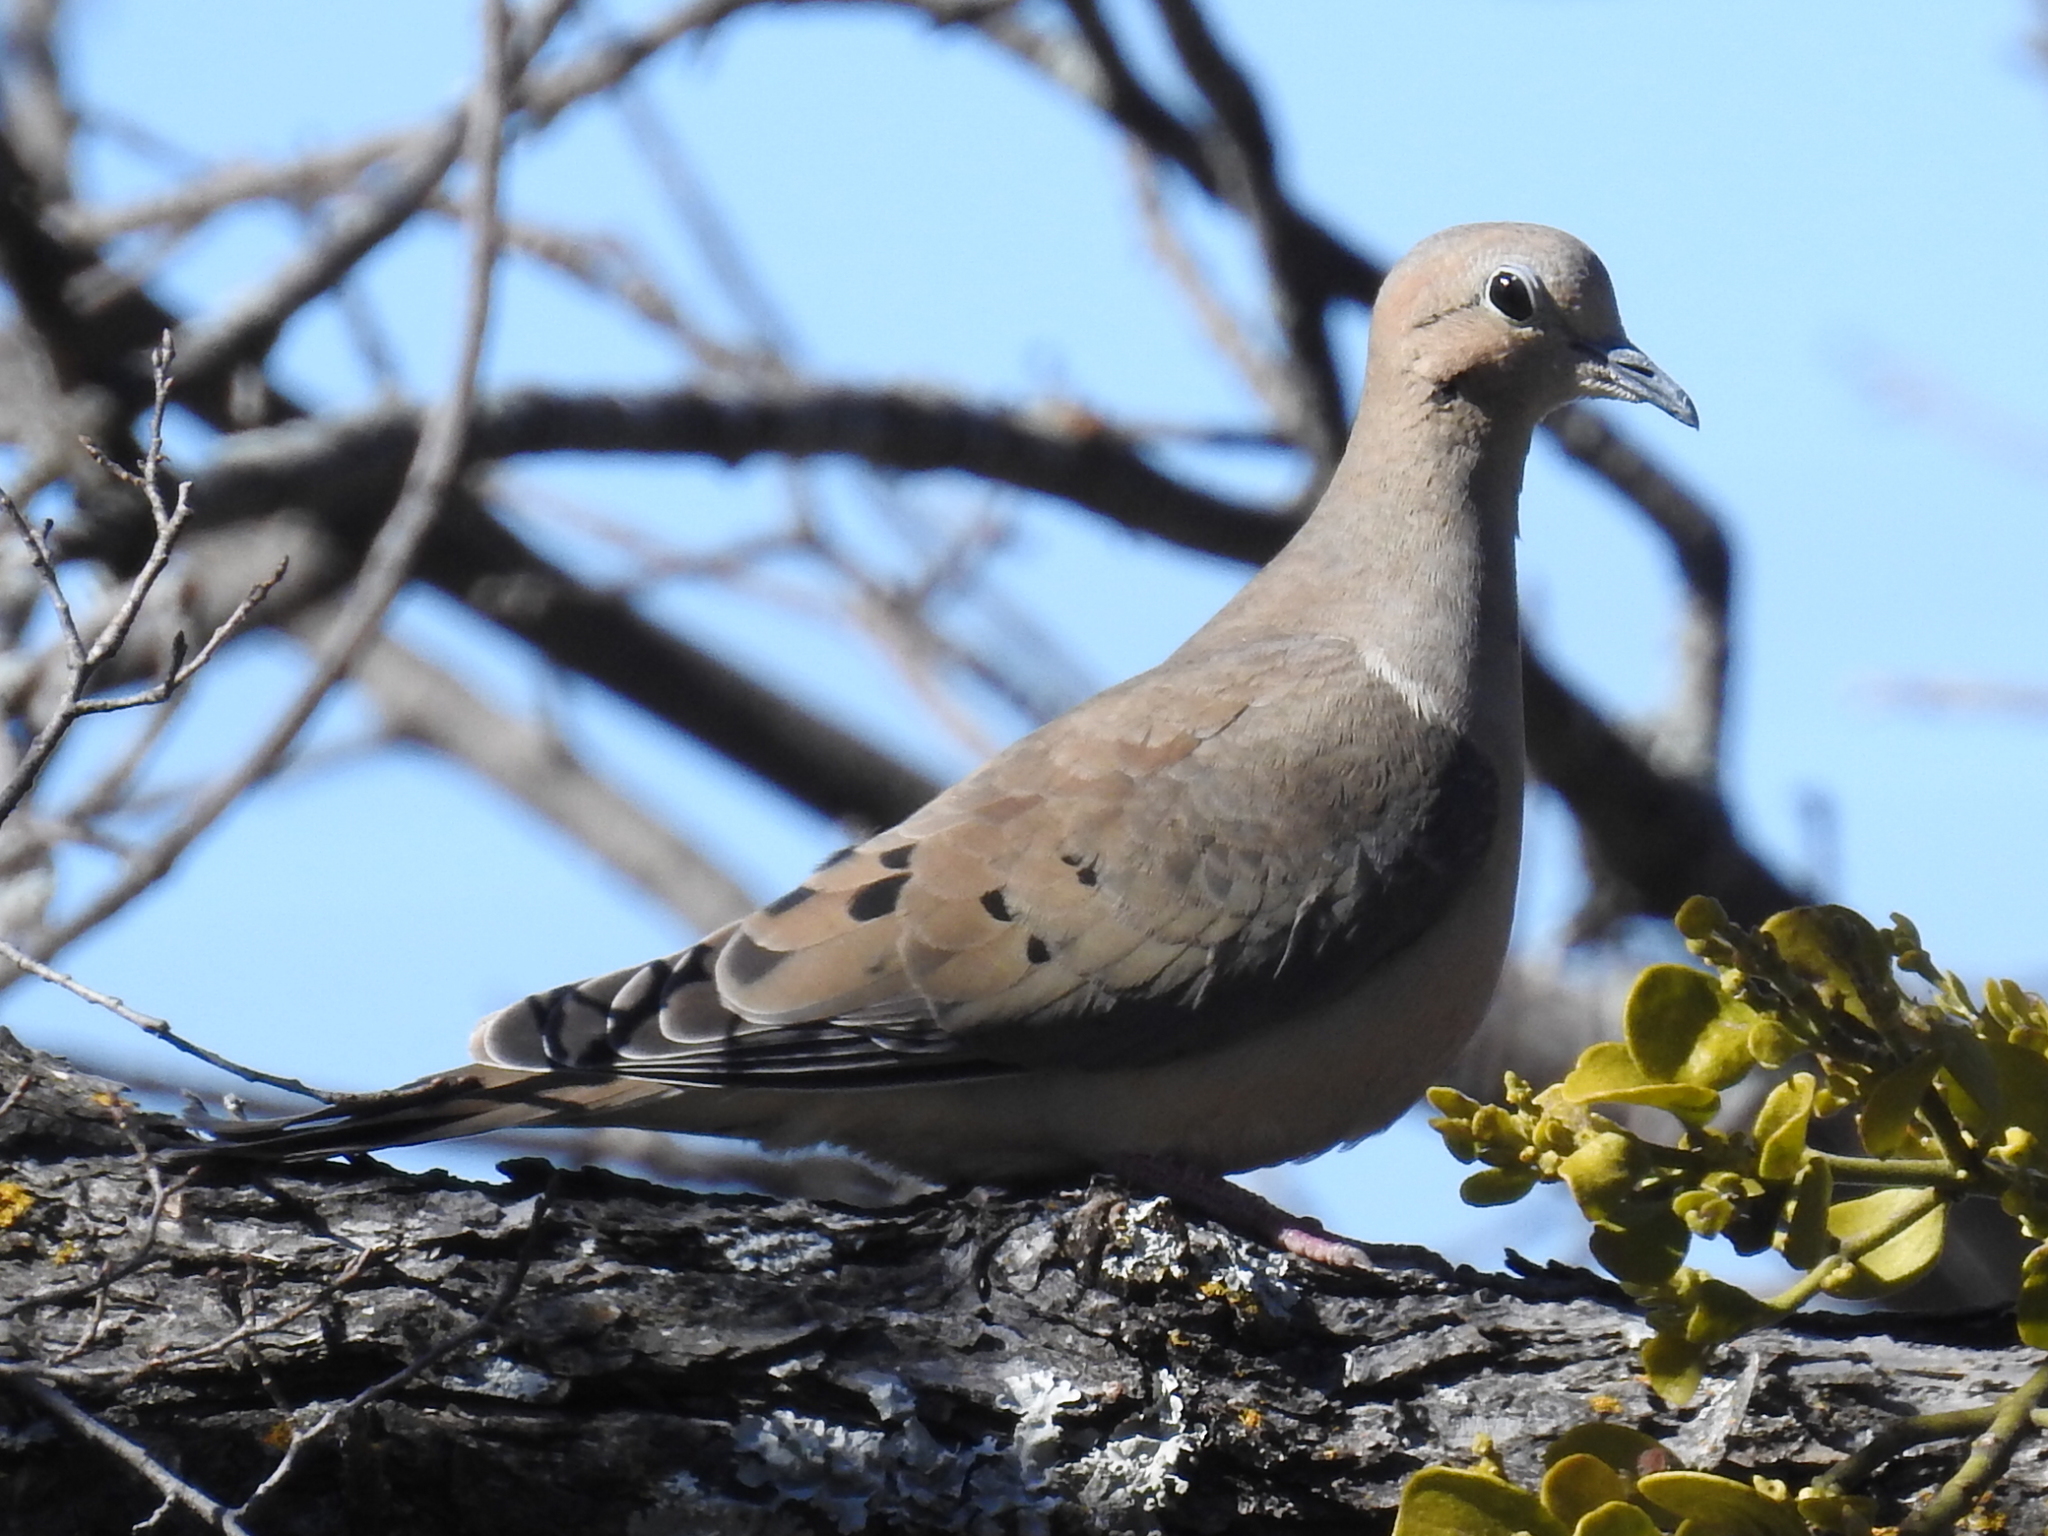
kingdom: Animalia
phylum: Chordata
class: Aves
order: Columbiformes
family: Columbidae
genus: Zenaida
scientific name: Zenaida macroura
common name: Mourning dove
